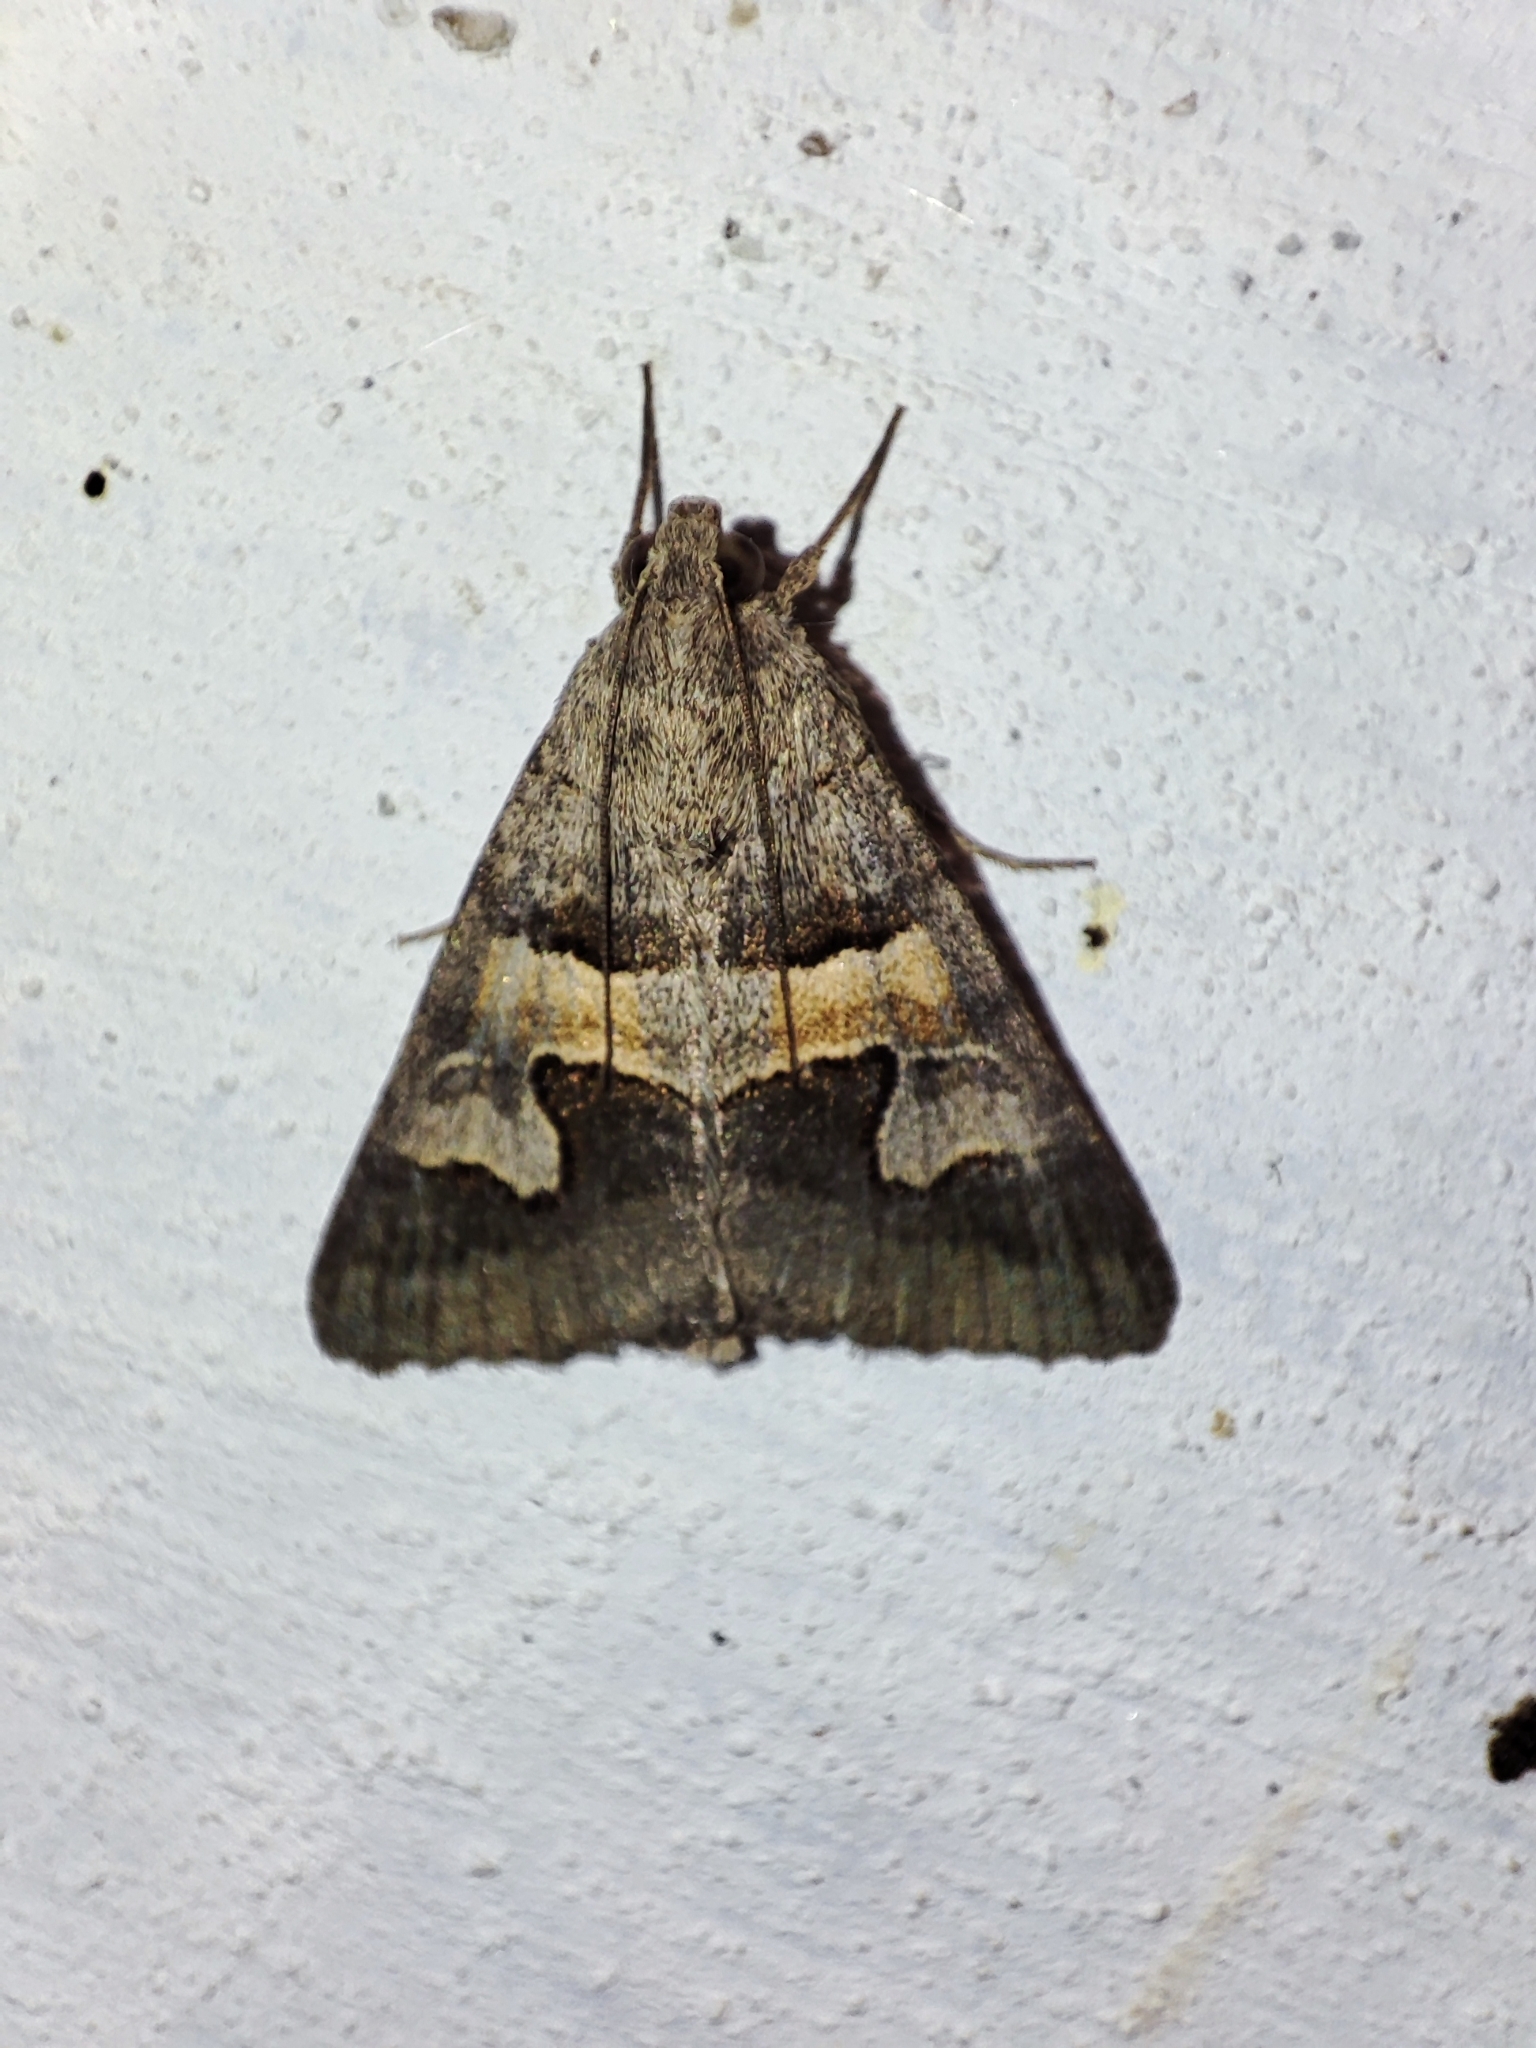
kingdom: Animalia
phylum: Arthropoda
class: Insecta
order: Lepidoptera
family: Erebidae
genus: Drasteria
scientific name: Drasteria caucasica
